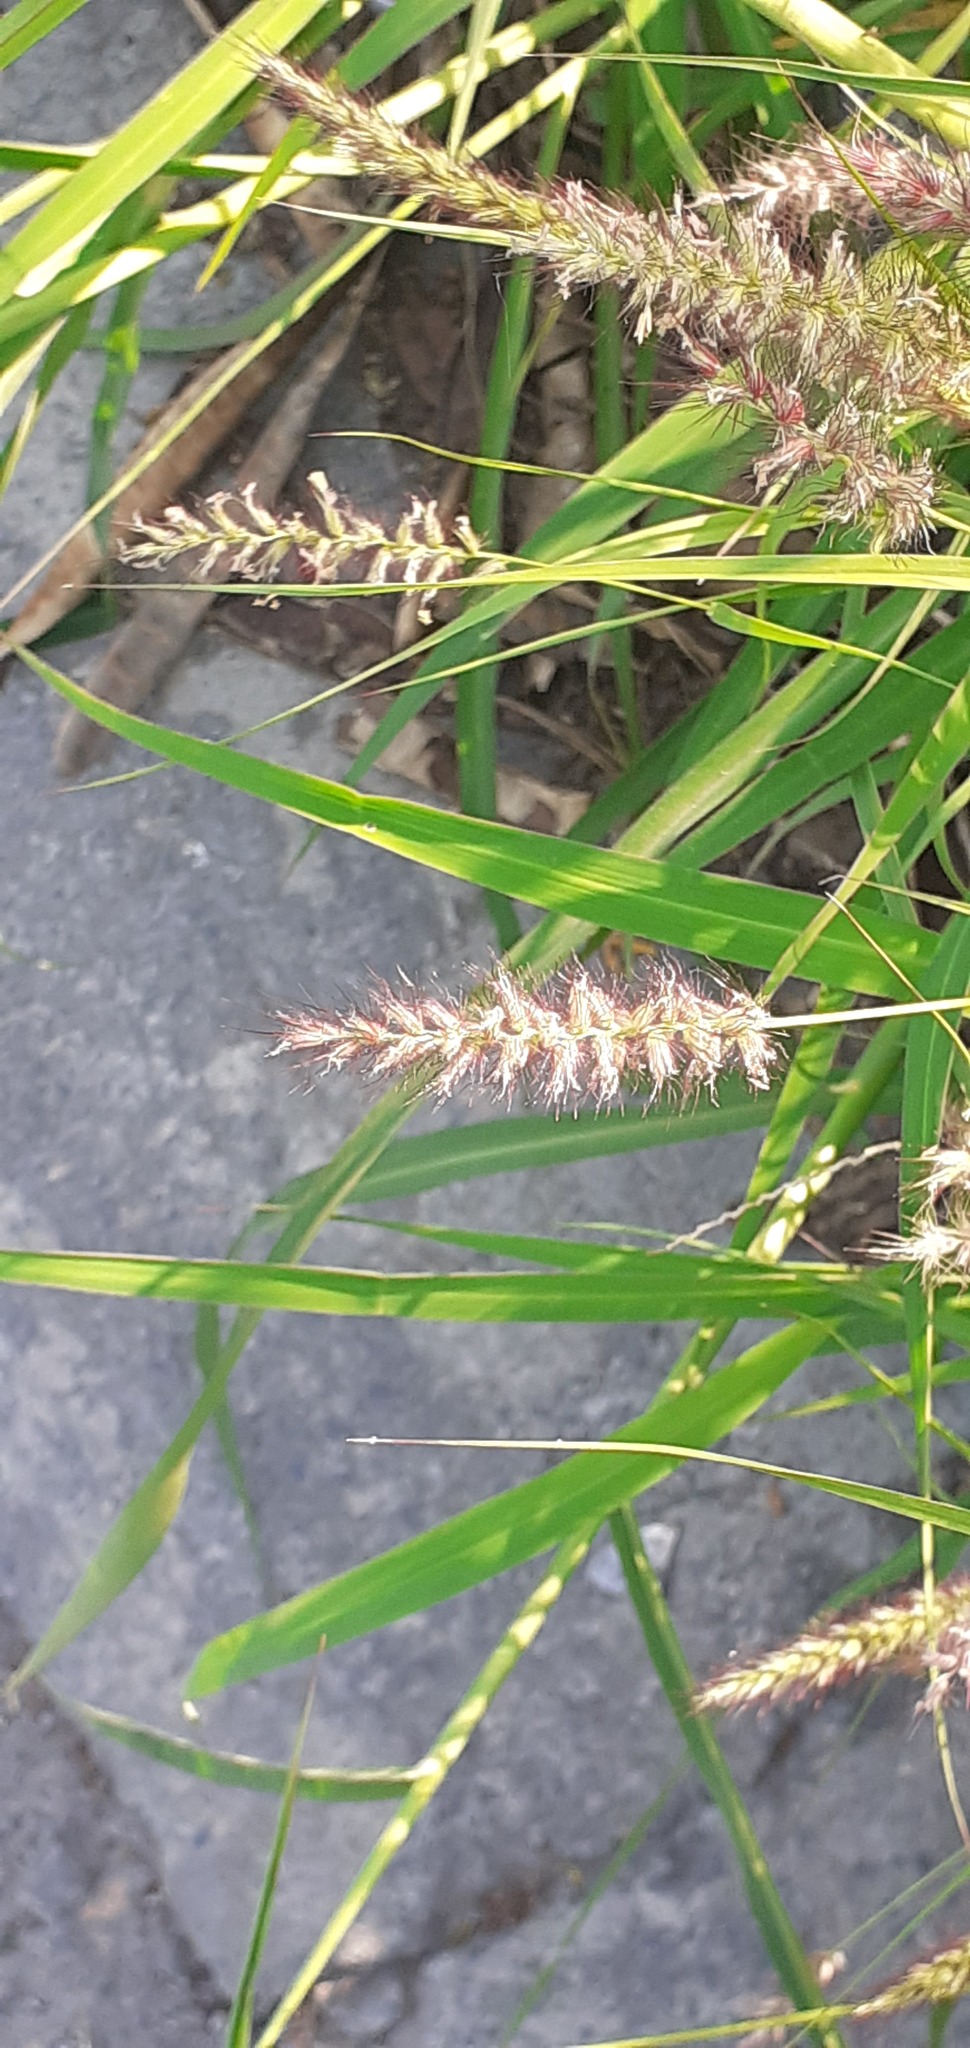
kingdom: Plantae
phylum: Tracheophyta
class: Liliopsida
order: Poales
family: Poaceae
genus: Cenchrus
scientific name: Cenchrus ciliaris
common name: Buffelgrass
